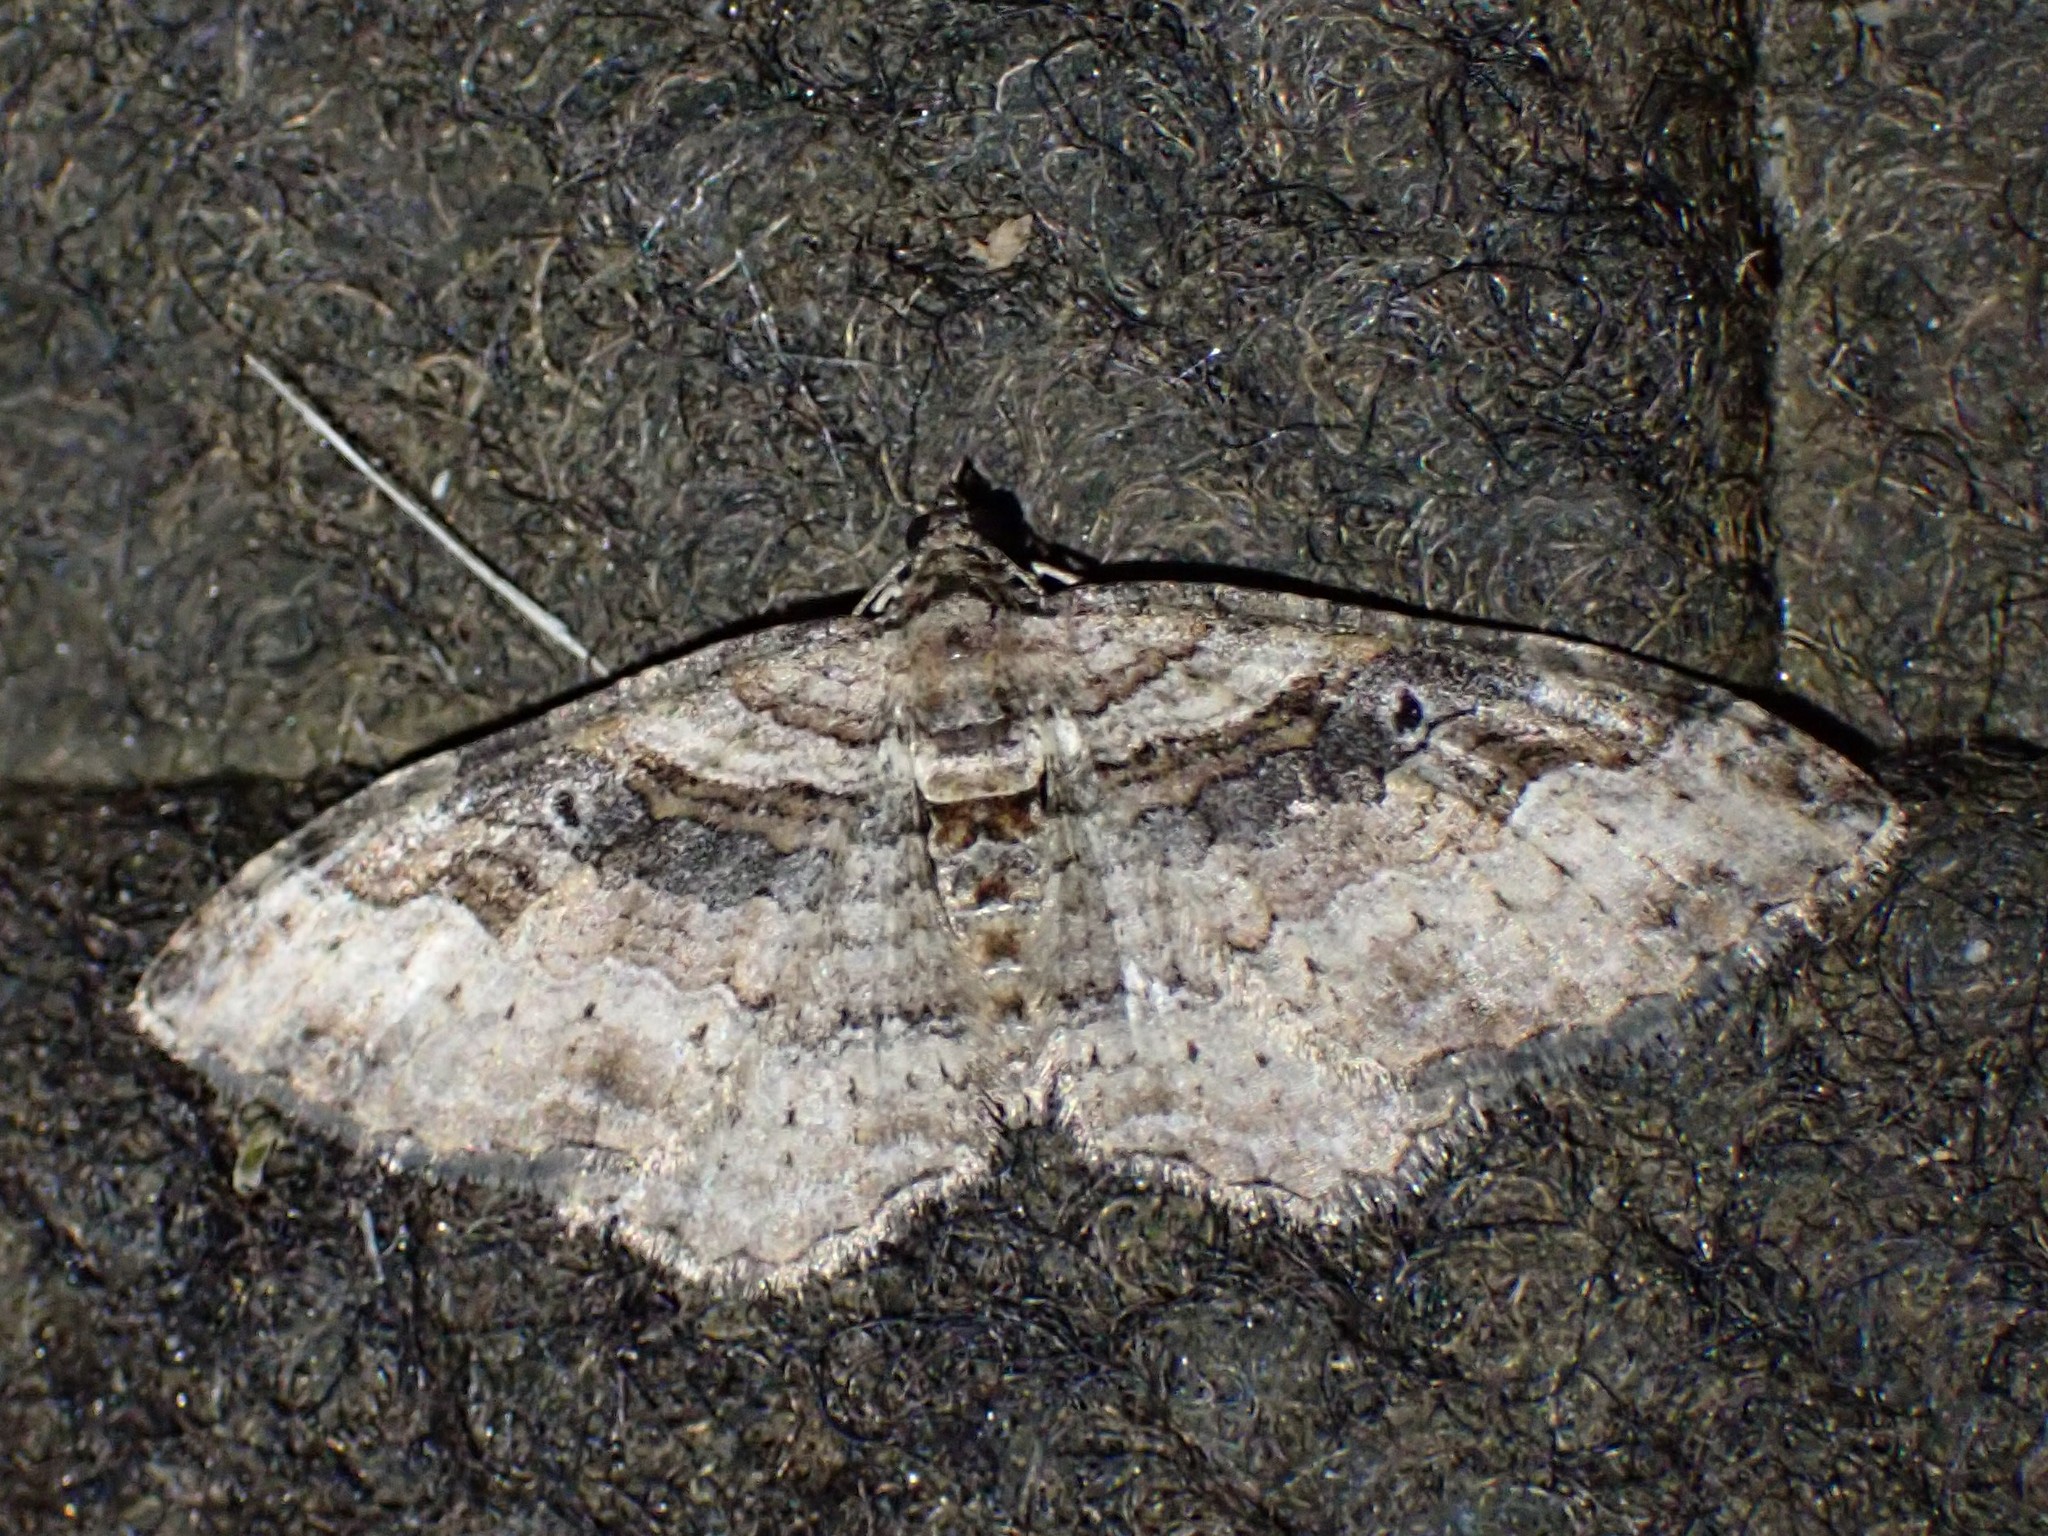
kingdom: Animalia
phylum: Arthropoda
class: Insecta
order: Lepidoptera
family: Geometridae
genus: Costaconvexa
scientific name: Costaconvexa centrostrigaria
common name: Bent-line carpet
